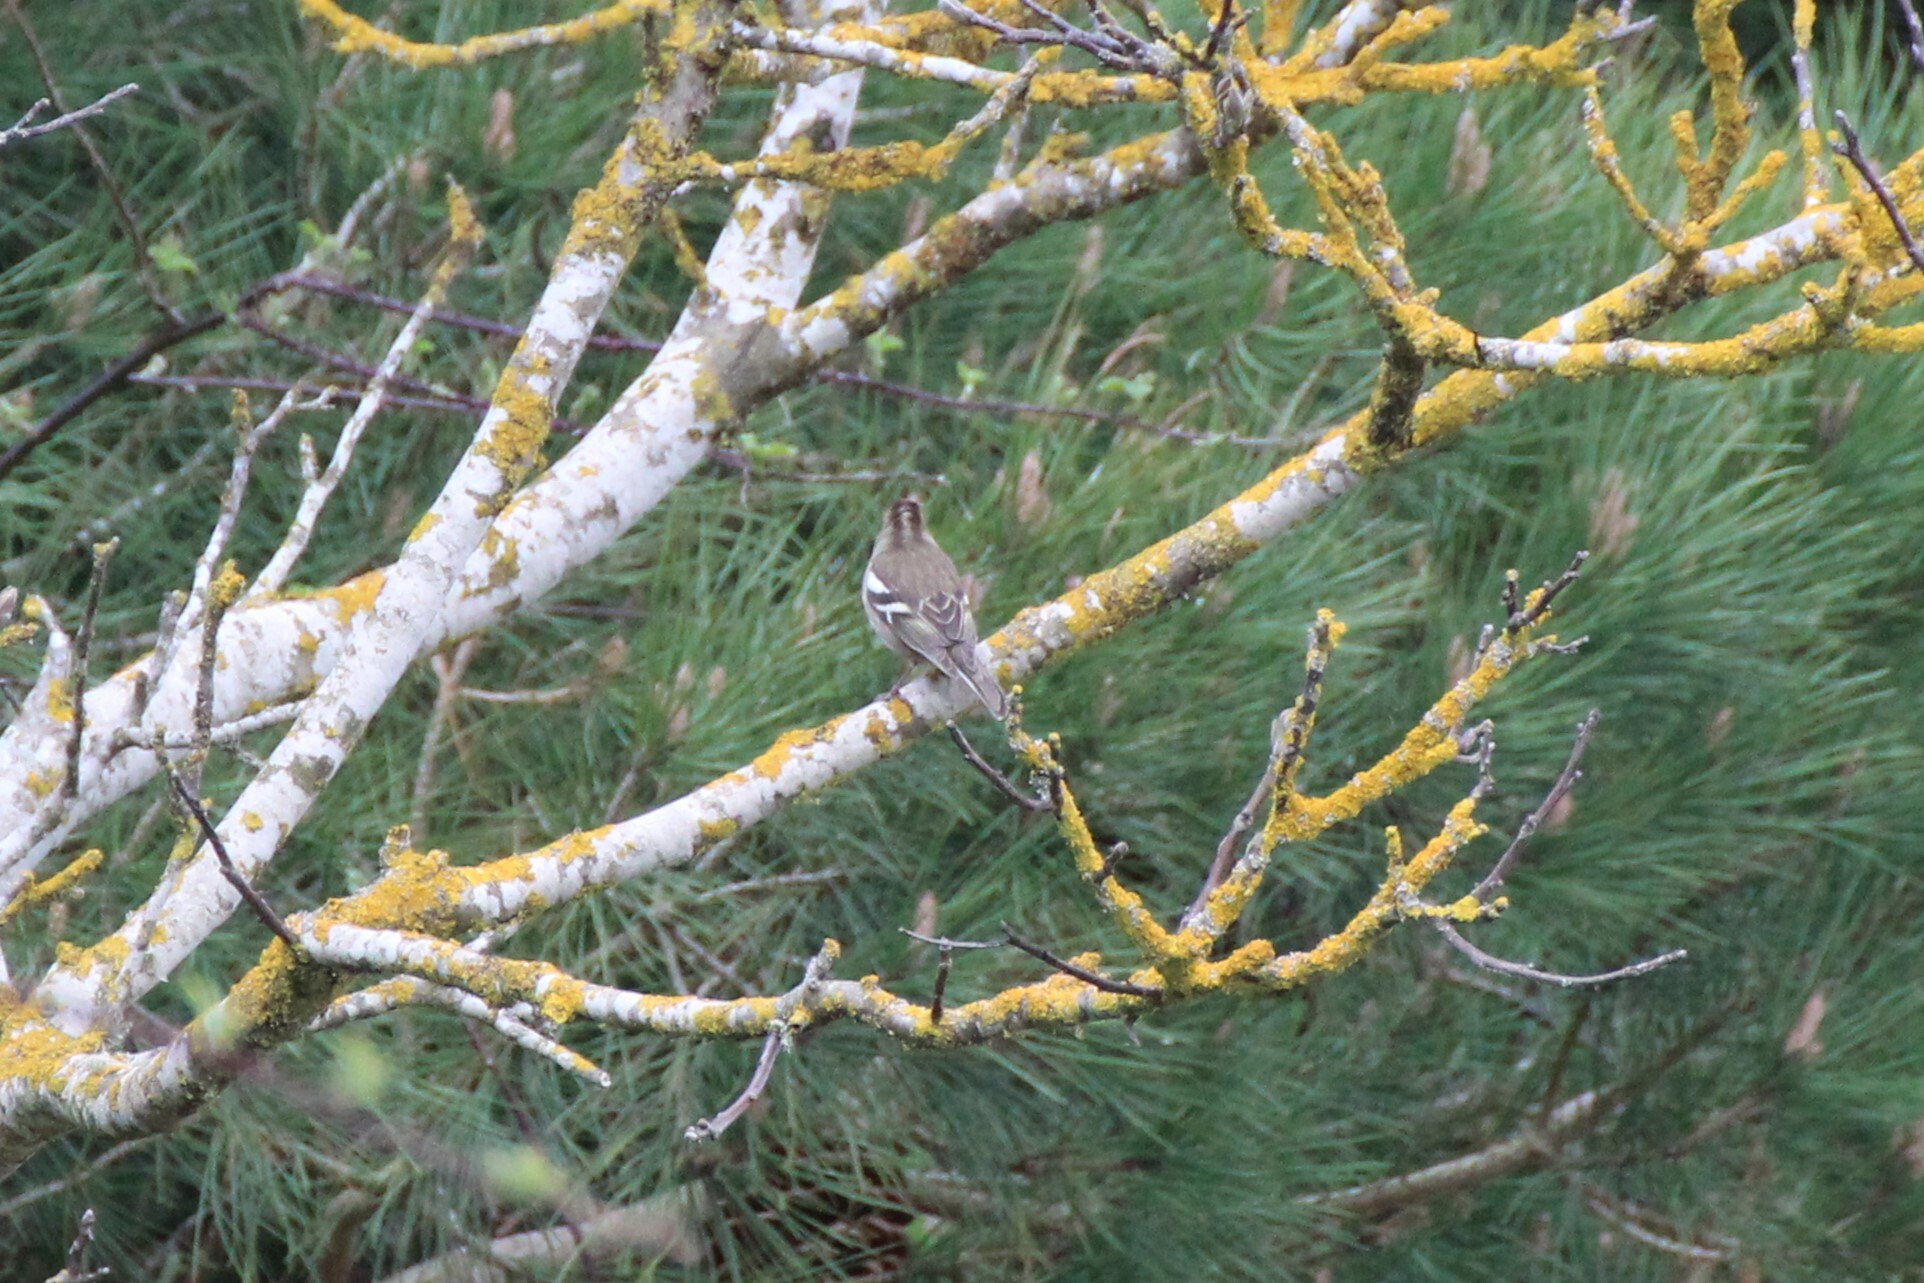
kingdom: Animalia
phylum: Chordata
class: Aves
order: Passeriformes
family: Fringillidae
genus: Fringilla
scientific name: Fringilla coelebs
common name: Common chaffinch
